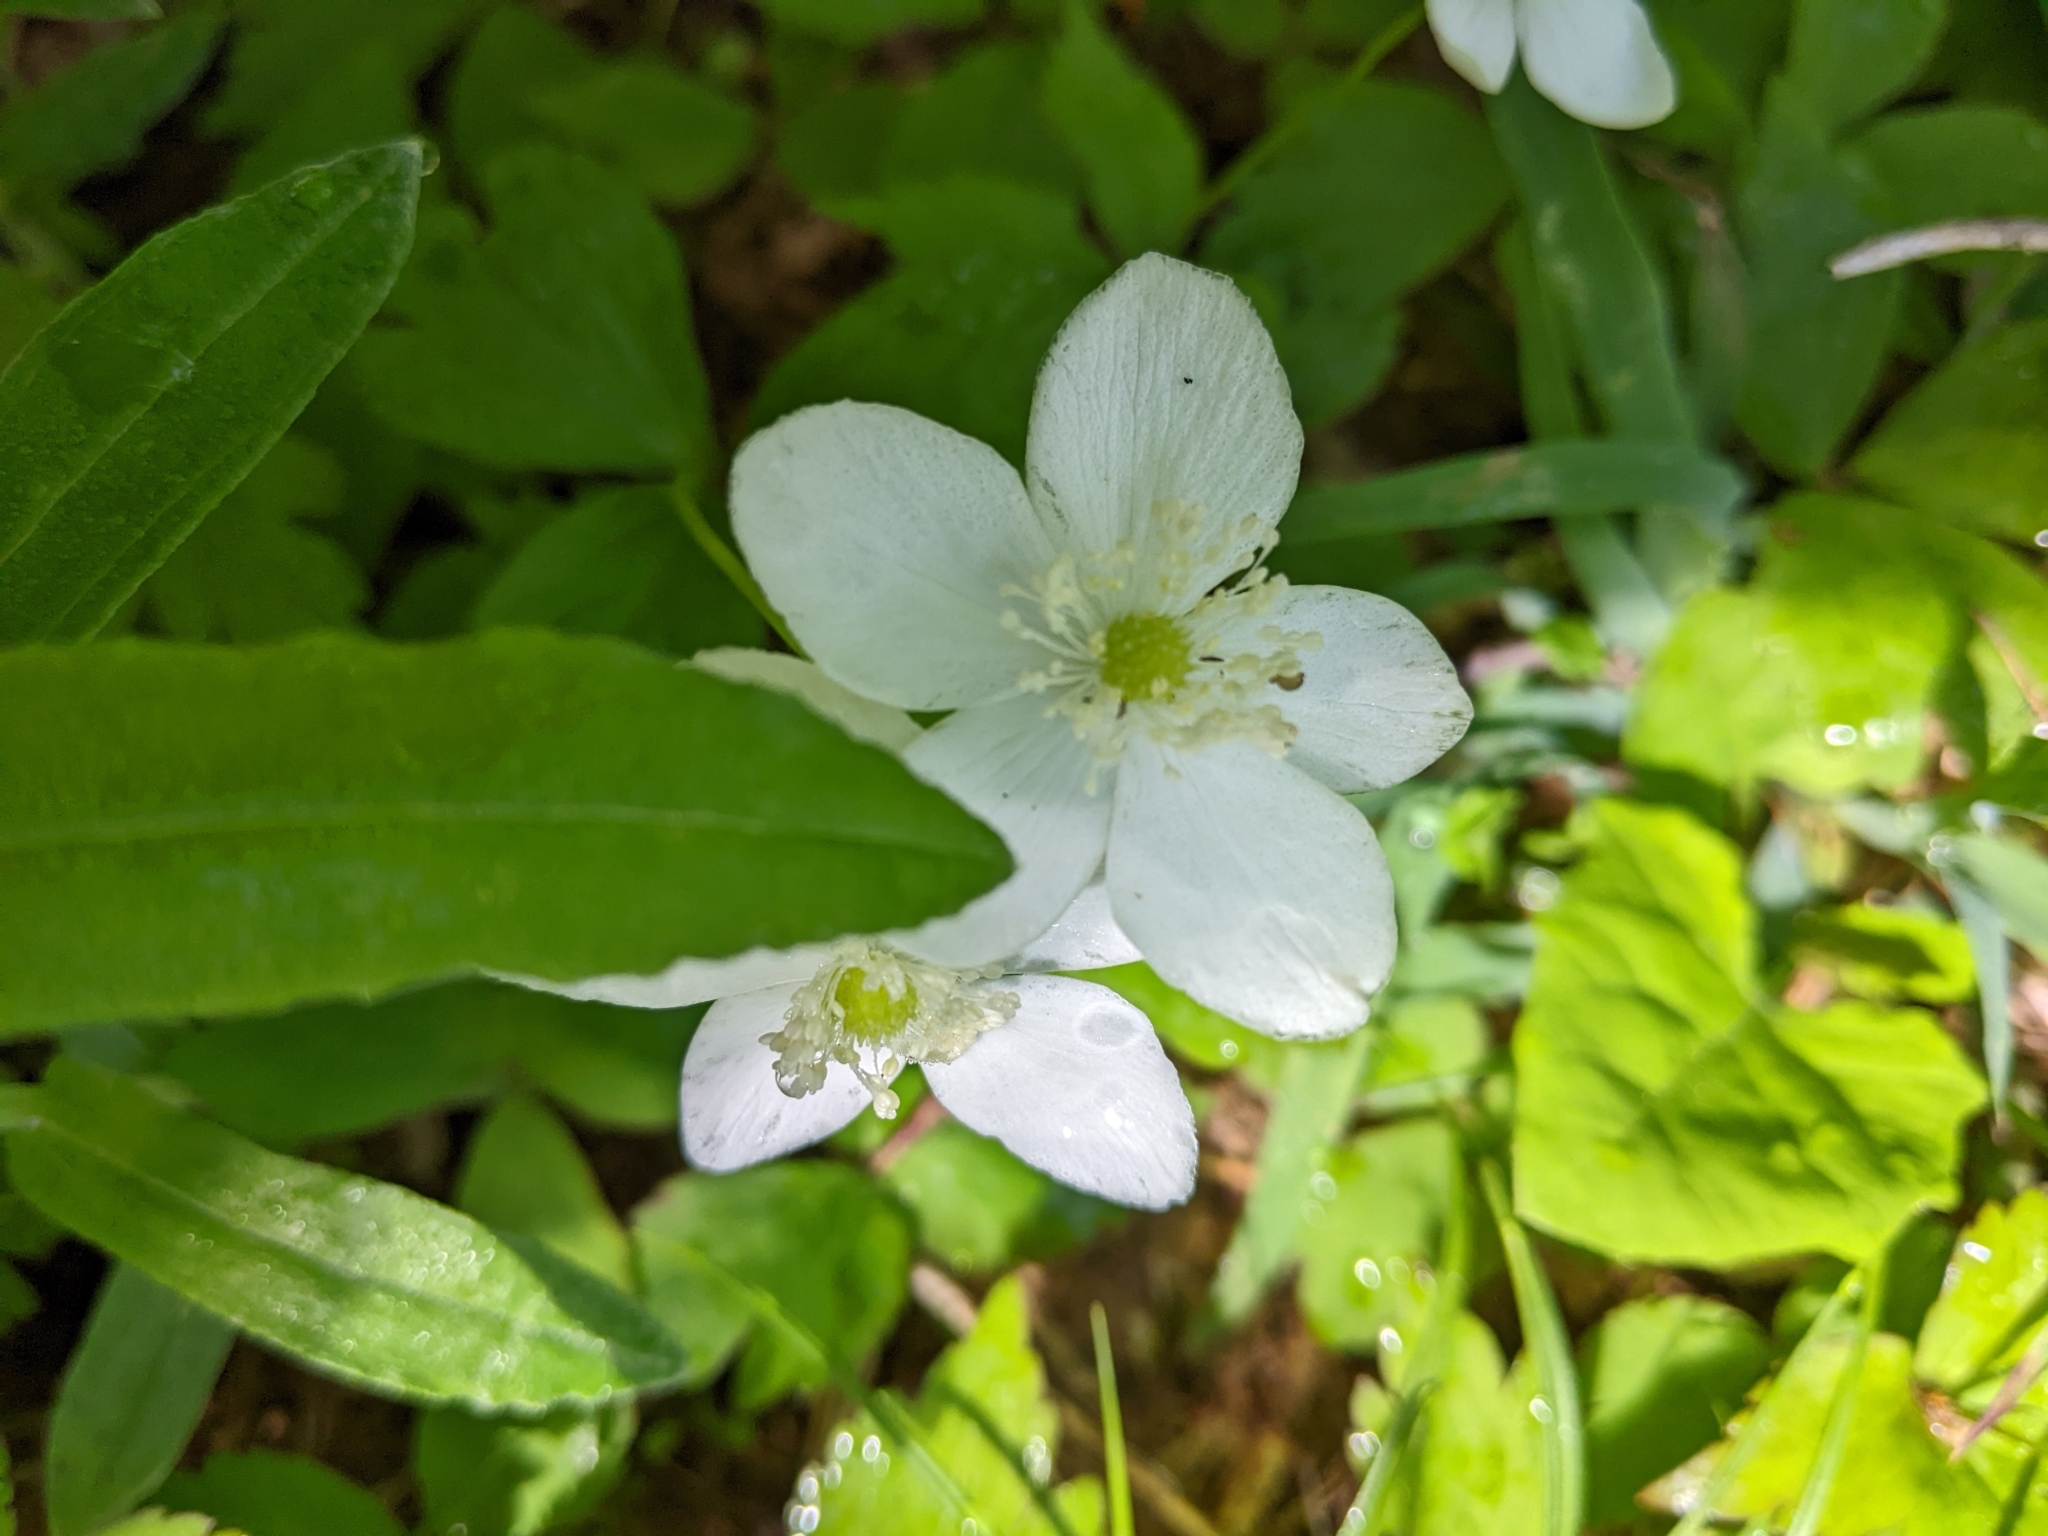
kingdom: Plantae
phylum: Tracheophyta
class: Magnoliopsida
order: Ranunculales
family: Ranunculaceae
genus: Anemonastrum
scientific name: Anemonastrum deltoideum
